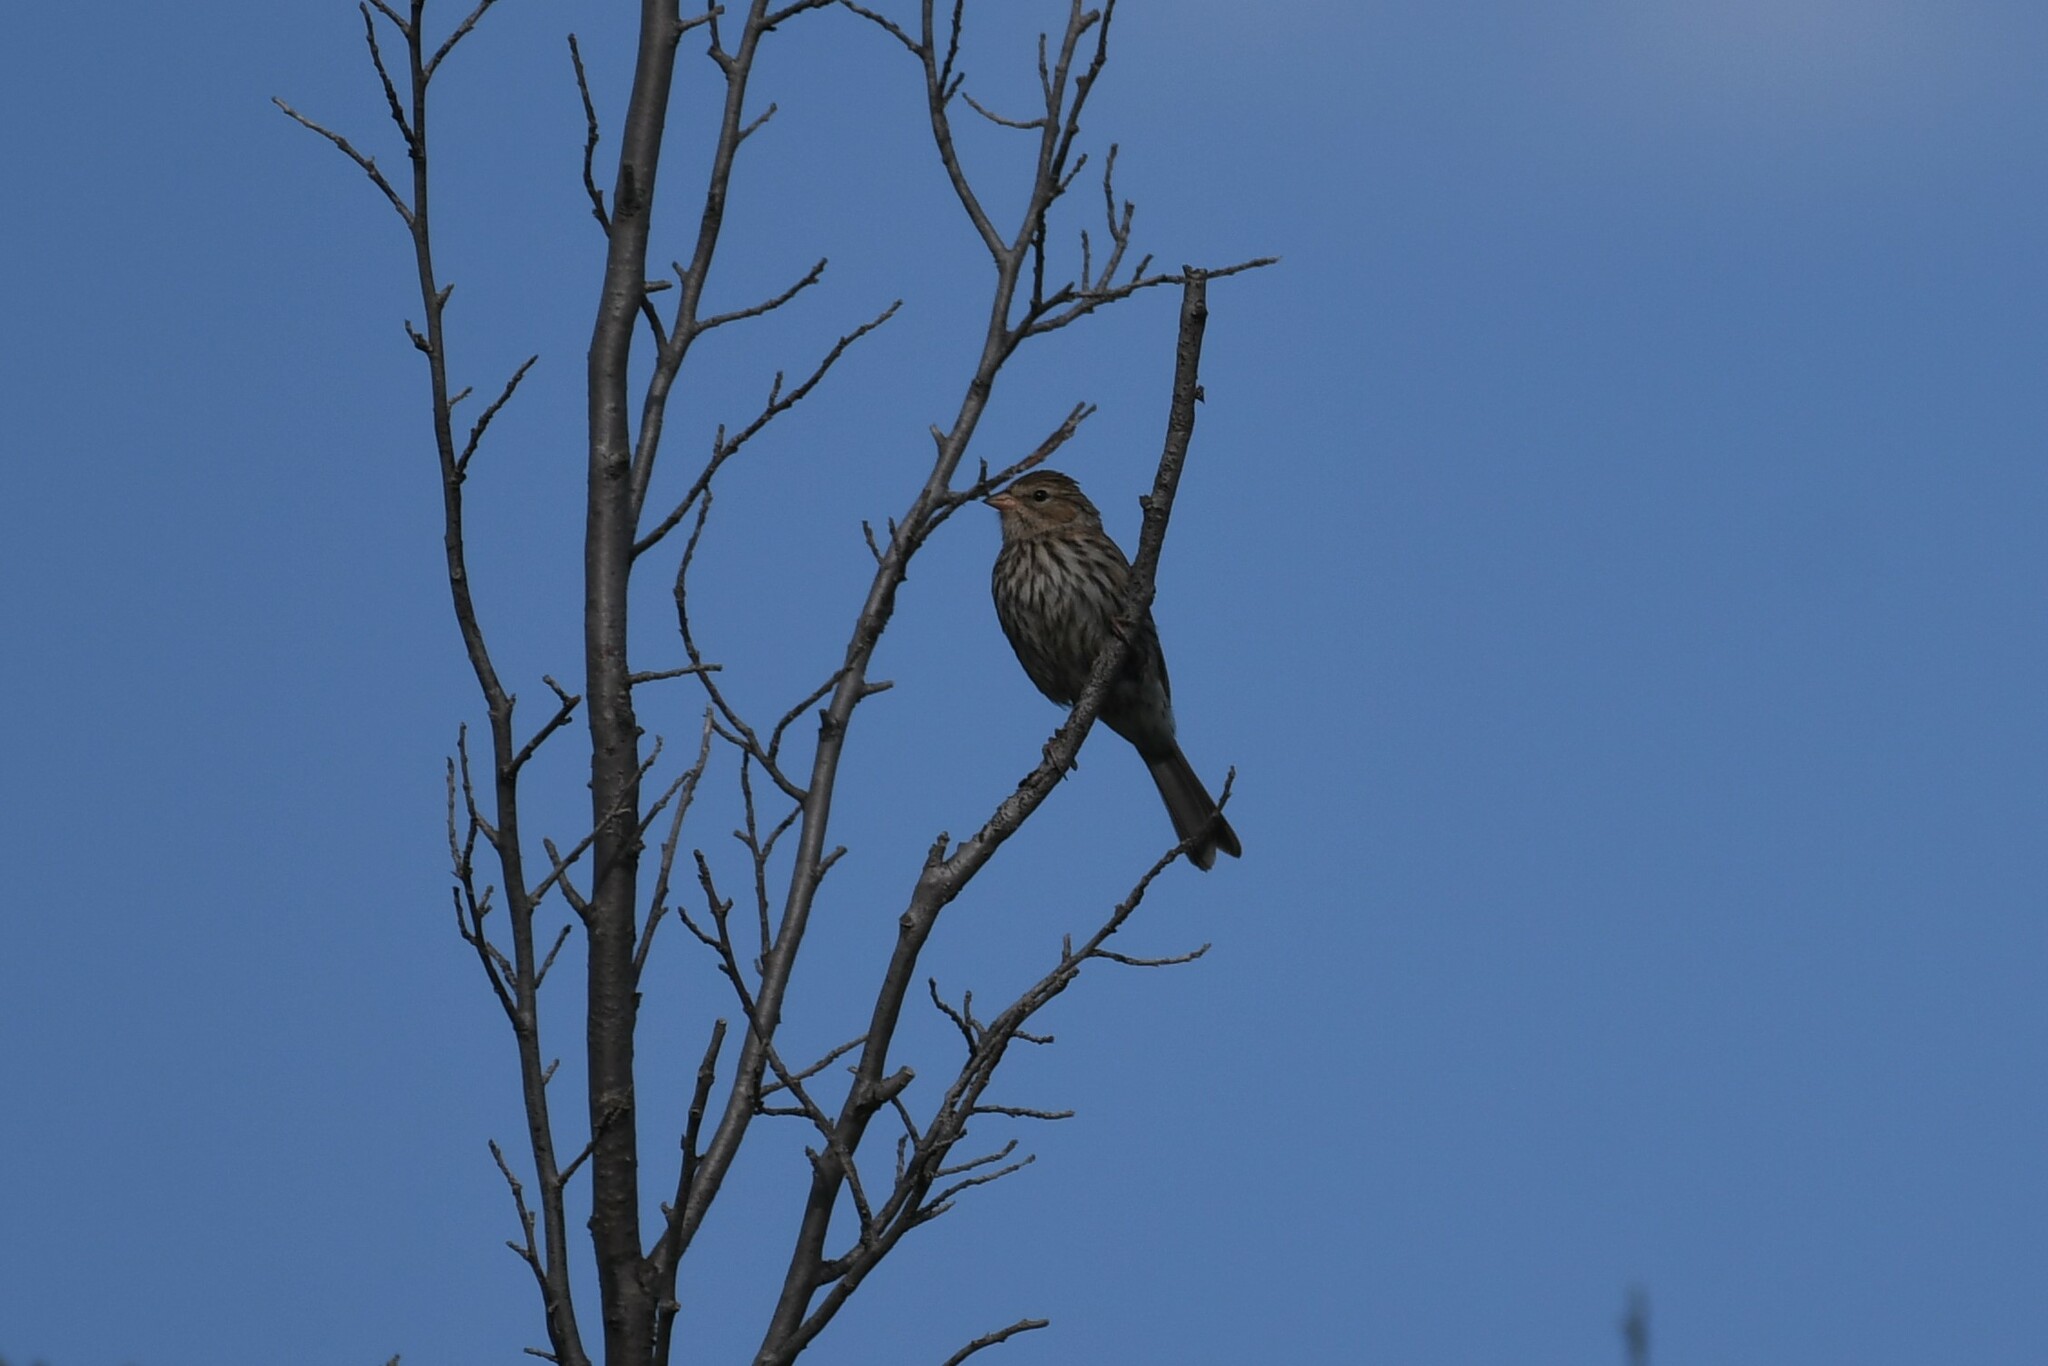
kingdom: Animalia
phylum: Chordata
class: Aves
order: Passeriformes
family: Passerellidae
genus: Spizella
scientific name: Spizella passerina
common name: Chipping sparrow
